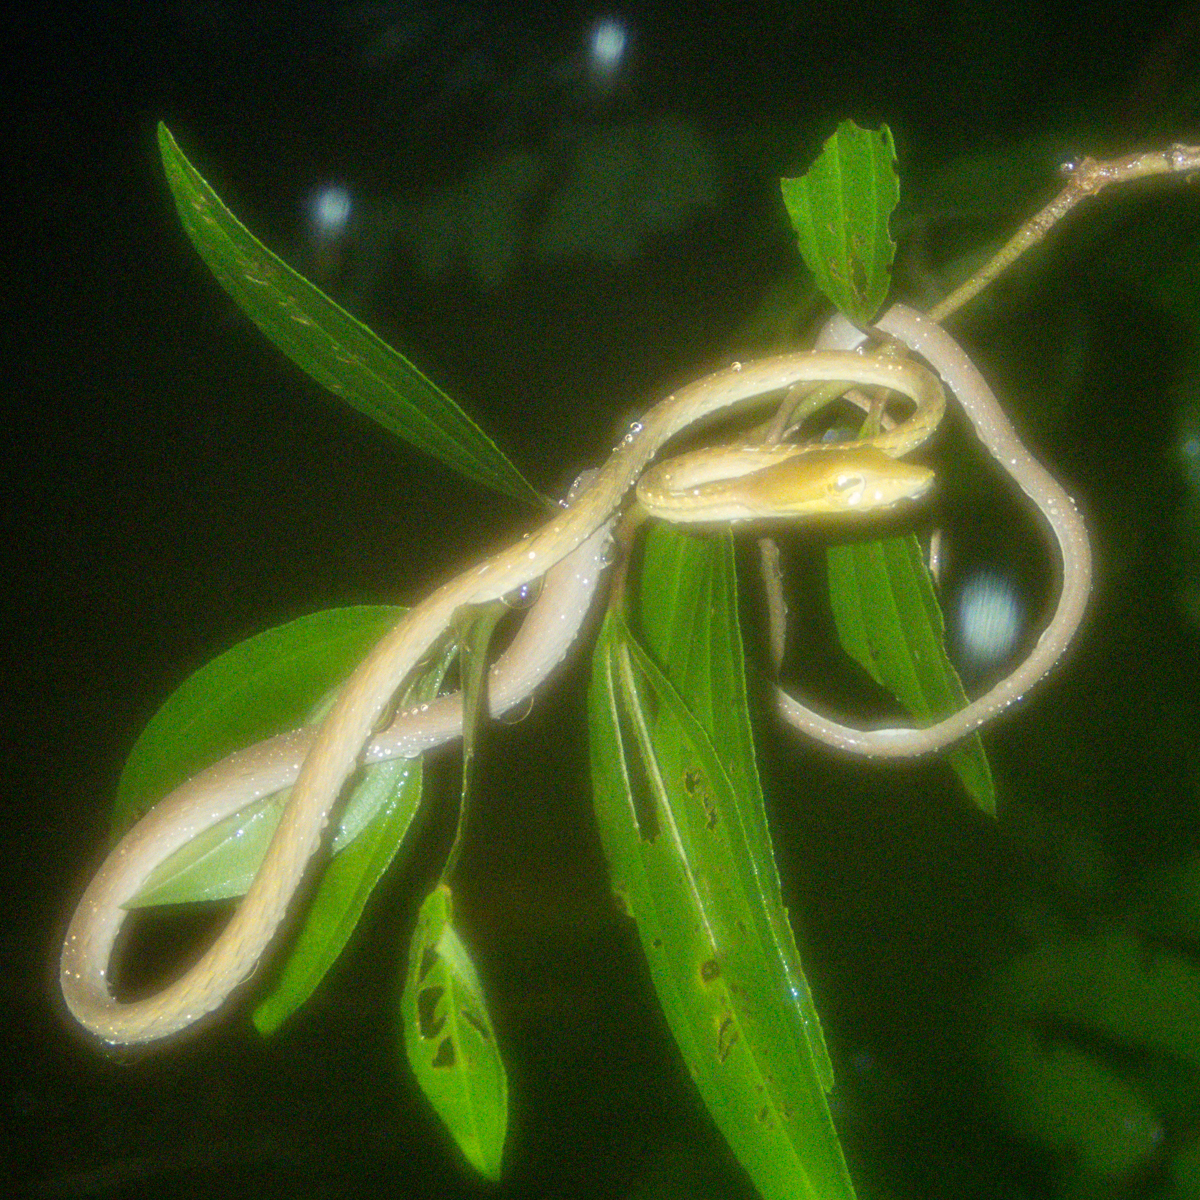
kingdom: Animalia
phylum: Chordata
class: Squamata
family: Colubridae
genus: Ahaetulla
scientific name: Ahaetulla prasina
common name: Oriental whip snake
